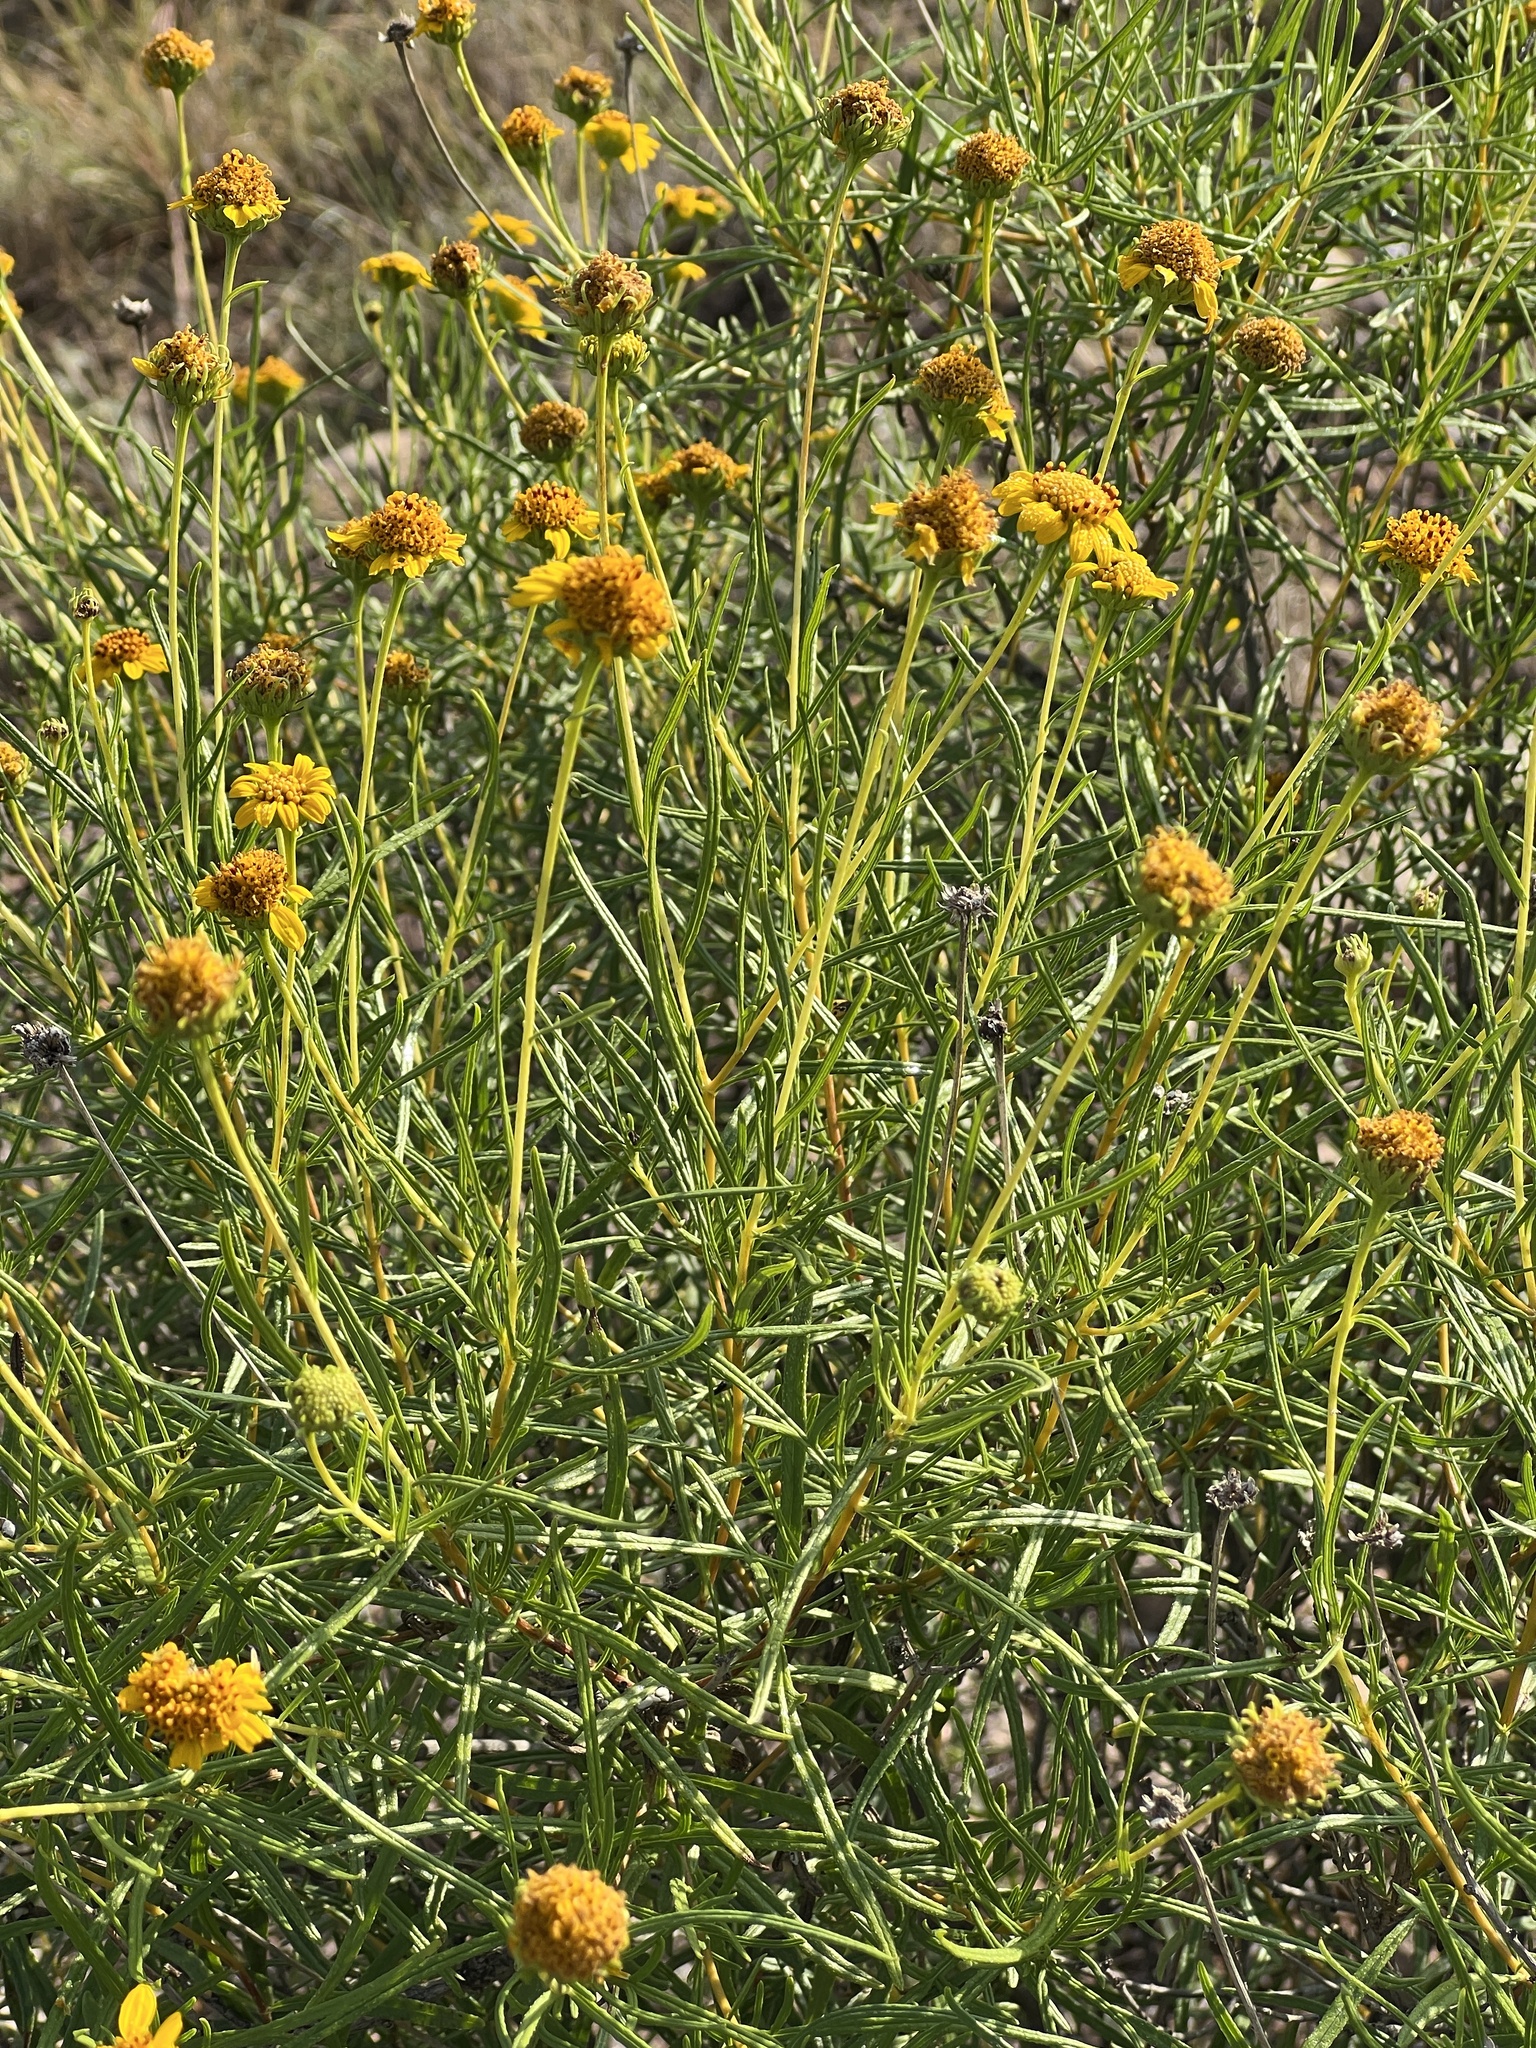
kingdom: Plantae
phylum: Tracheophyta
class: Magnoliopsida
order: Asterales
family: Asteraceae
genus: Sidneya
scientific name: Sidneya tenuifolia
